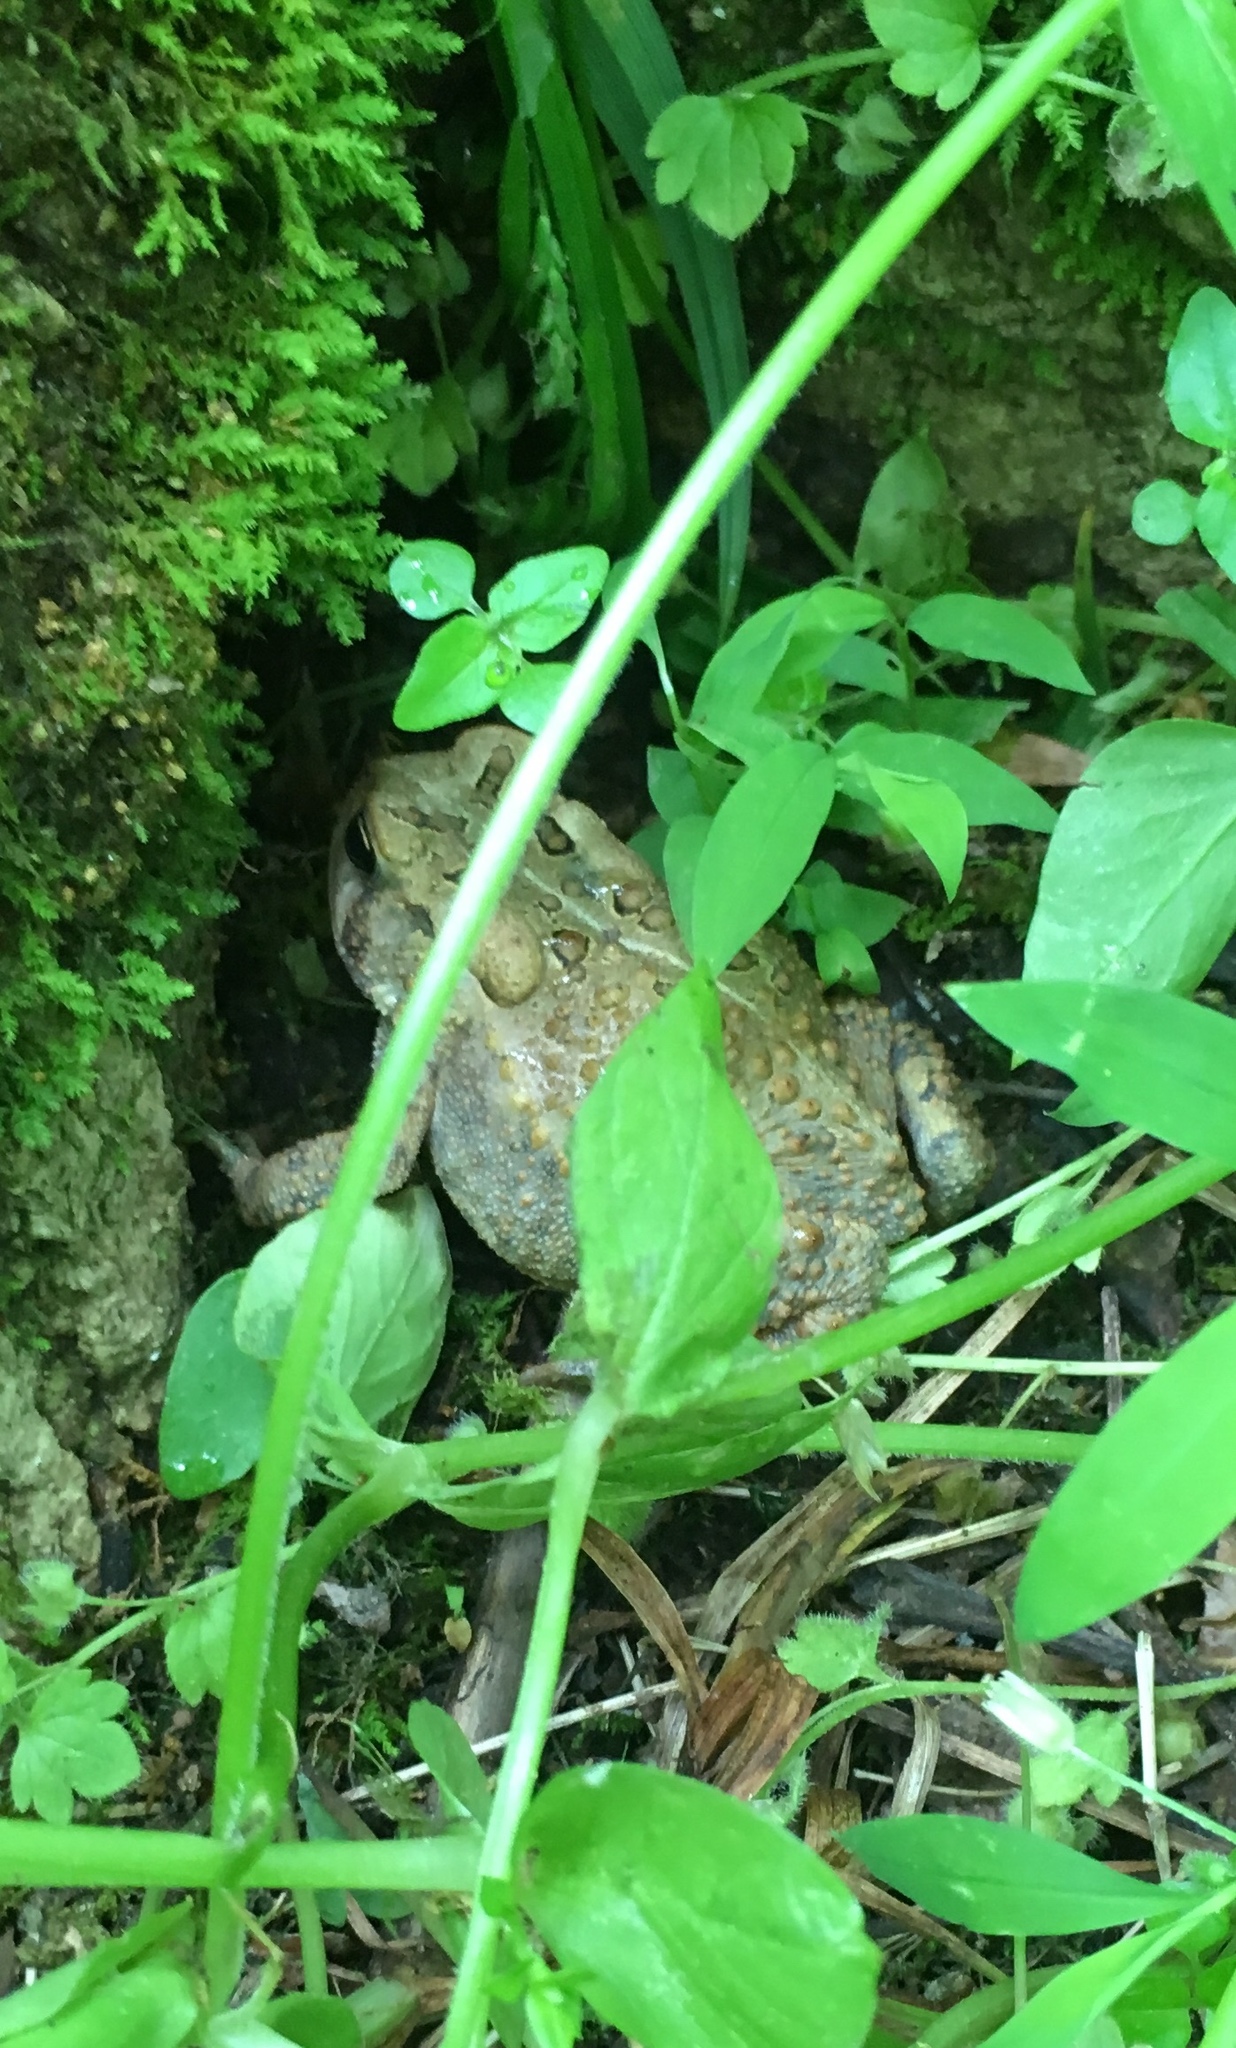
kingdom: Animalia
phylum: Chordata
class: Amphibia
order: Anura
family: Bufonidae
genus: Anaxyrus
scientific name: Anaxyrus americanus
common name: American toad
